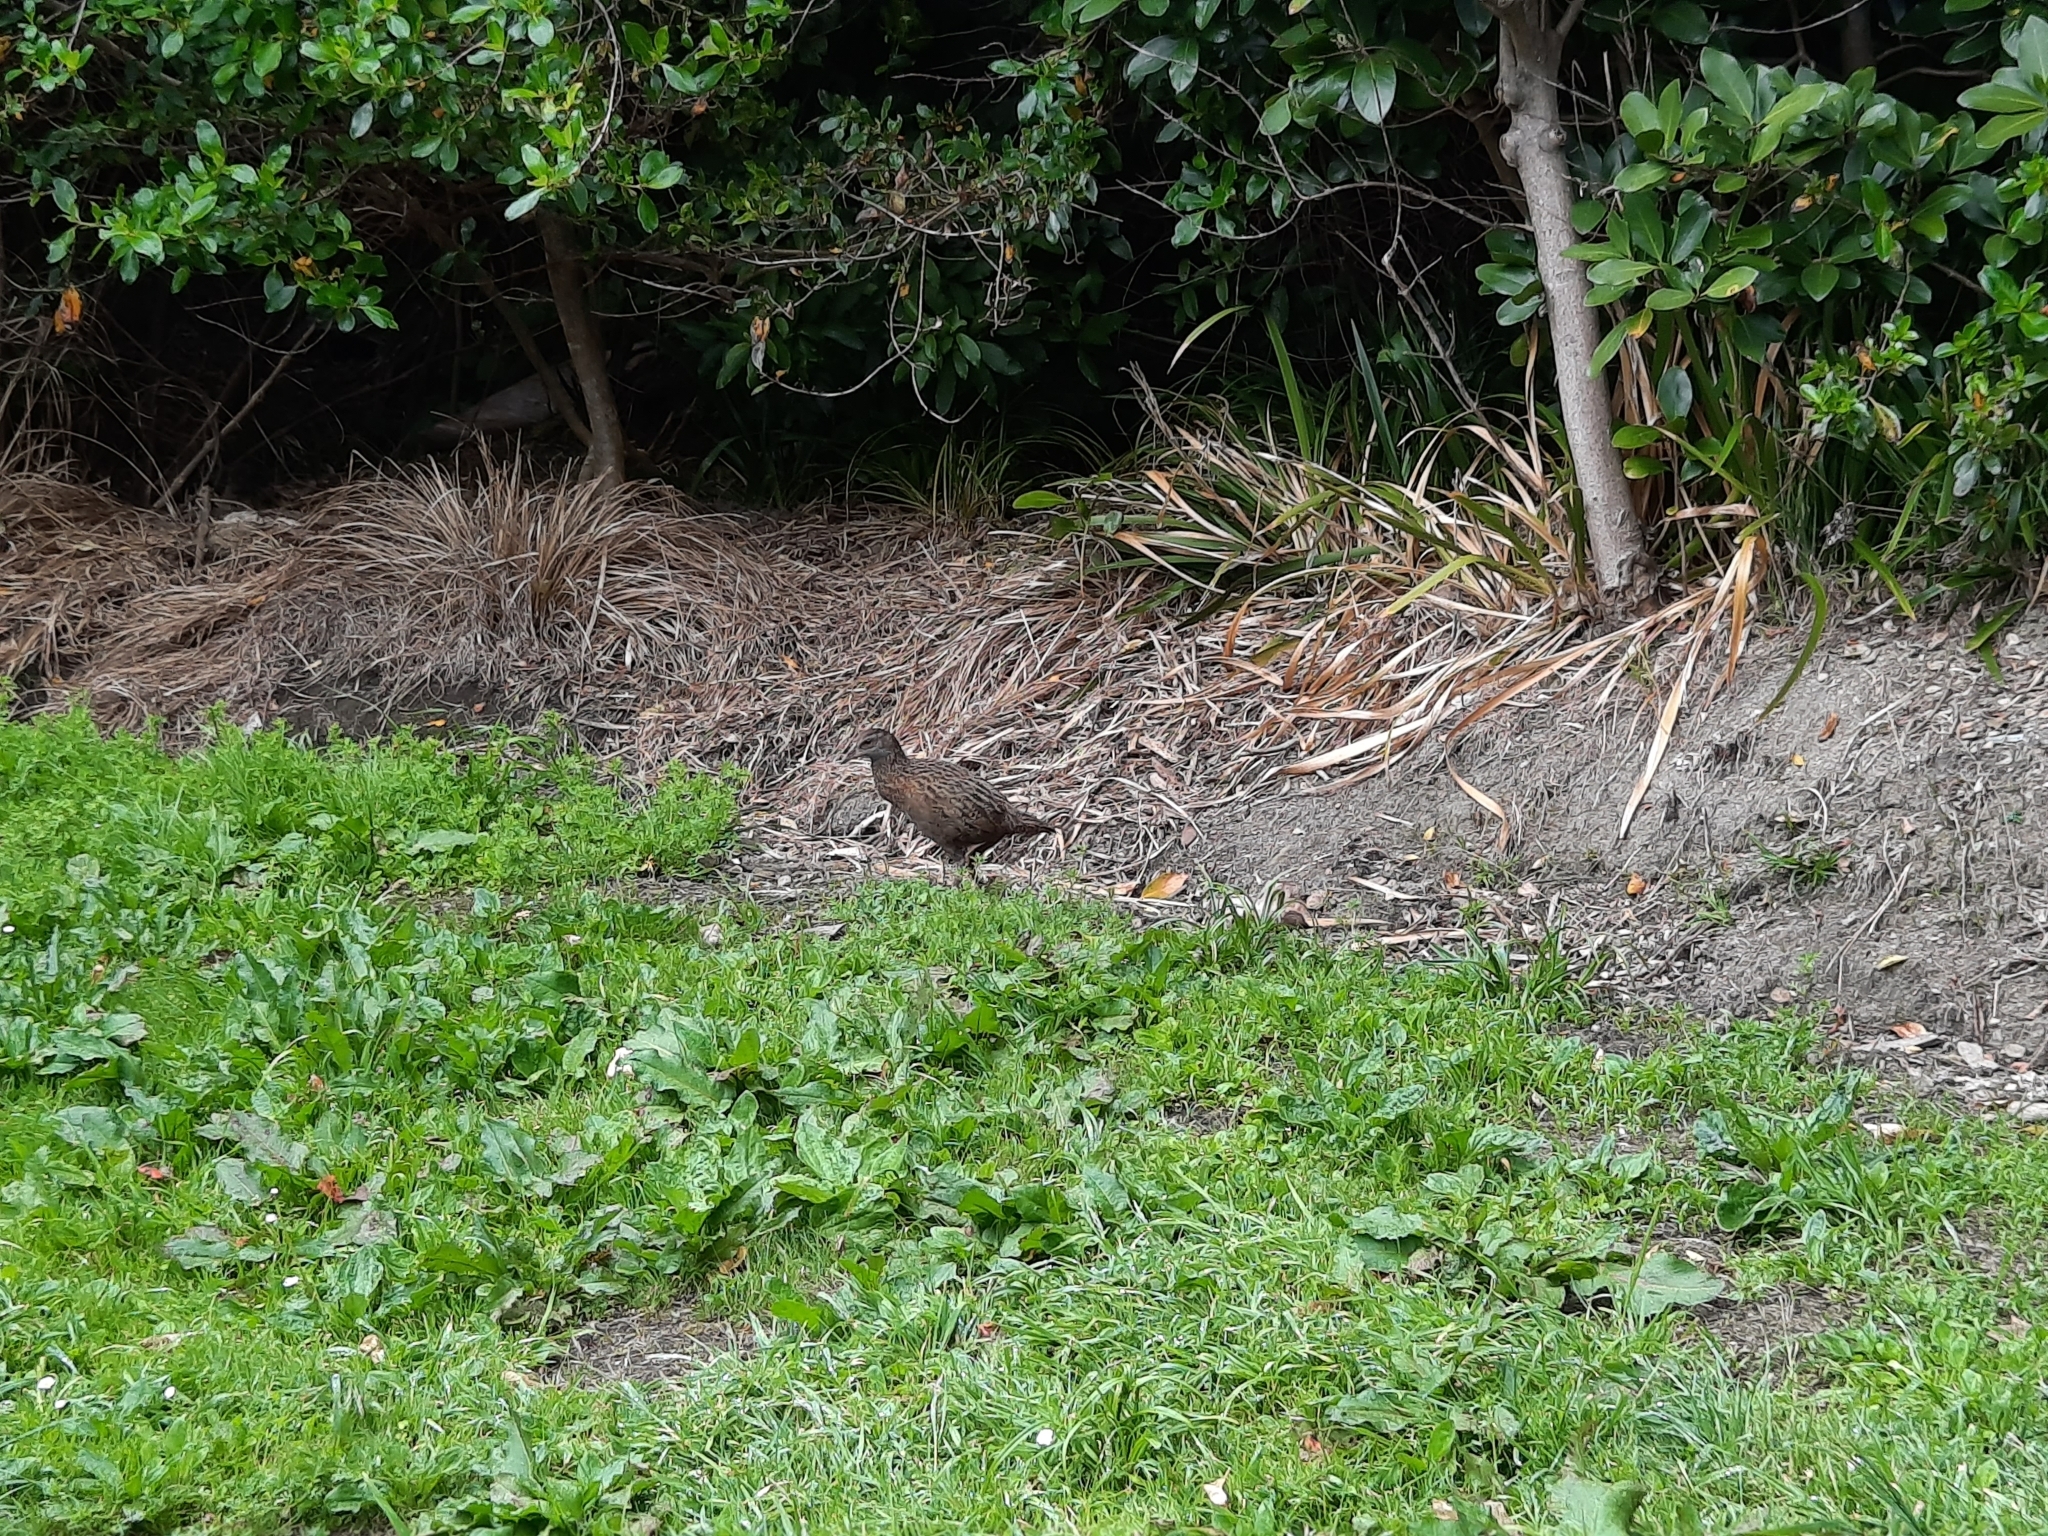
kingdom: Animalia
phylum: Chordata
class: Aves
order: Gruiformes
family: Rallidae
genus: Gallirallus
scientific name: Gallirallus australis
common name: Weka
